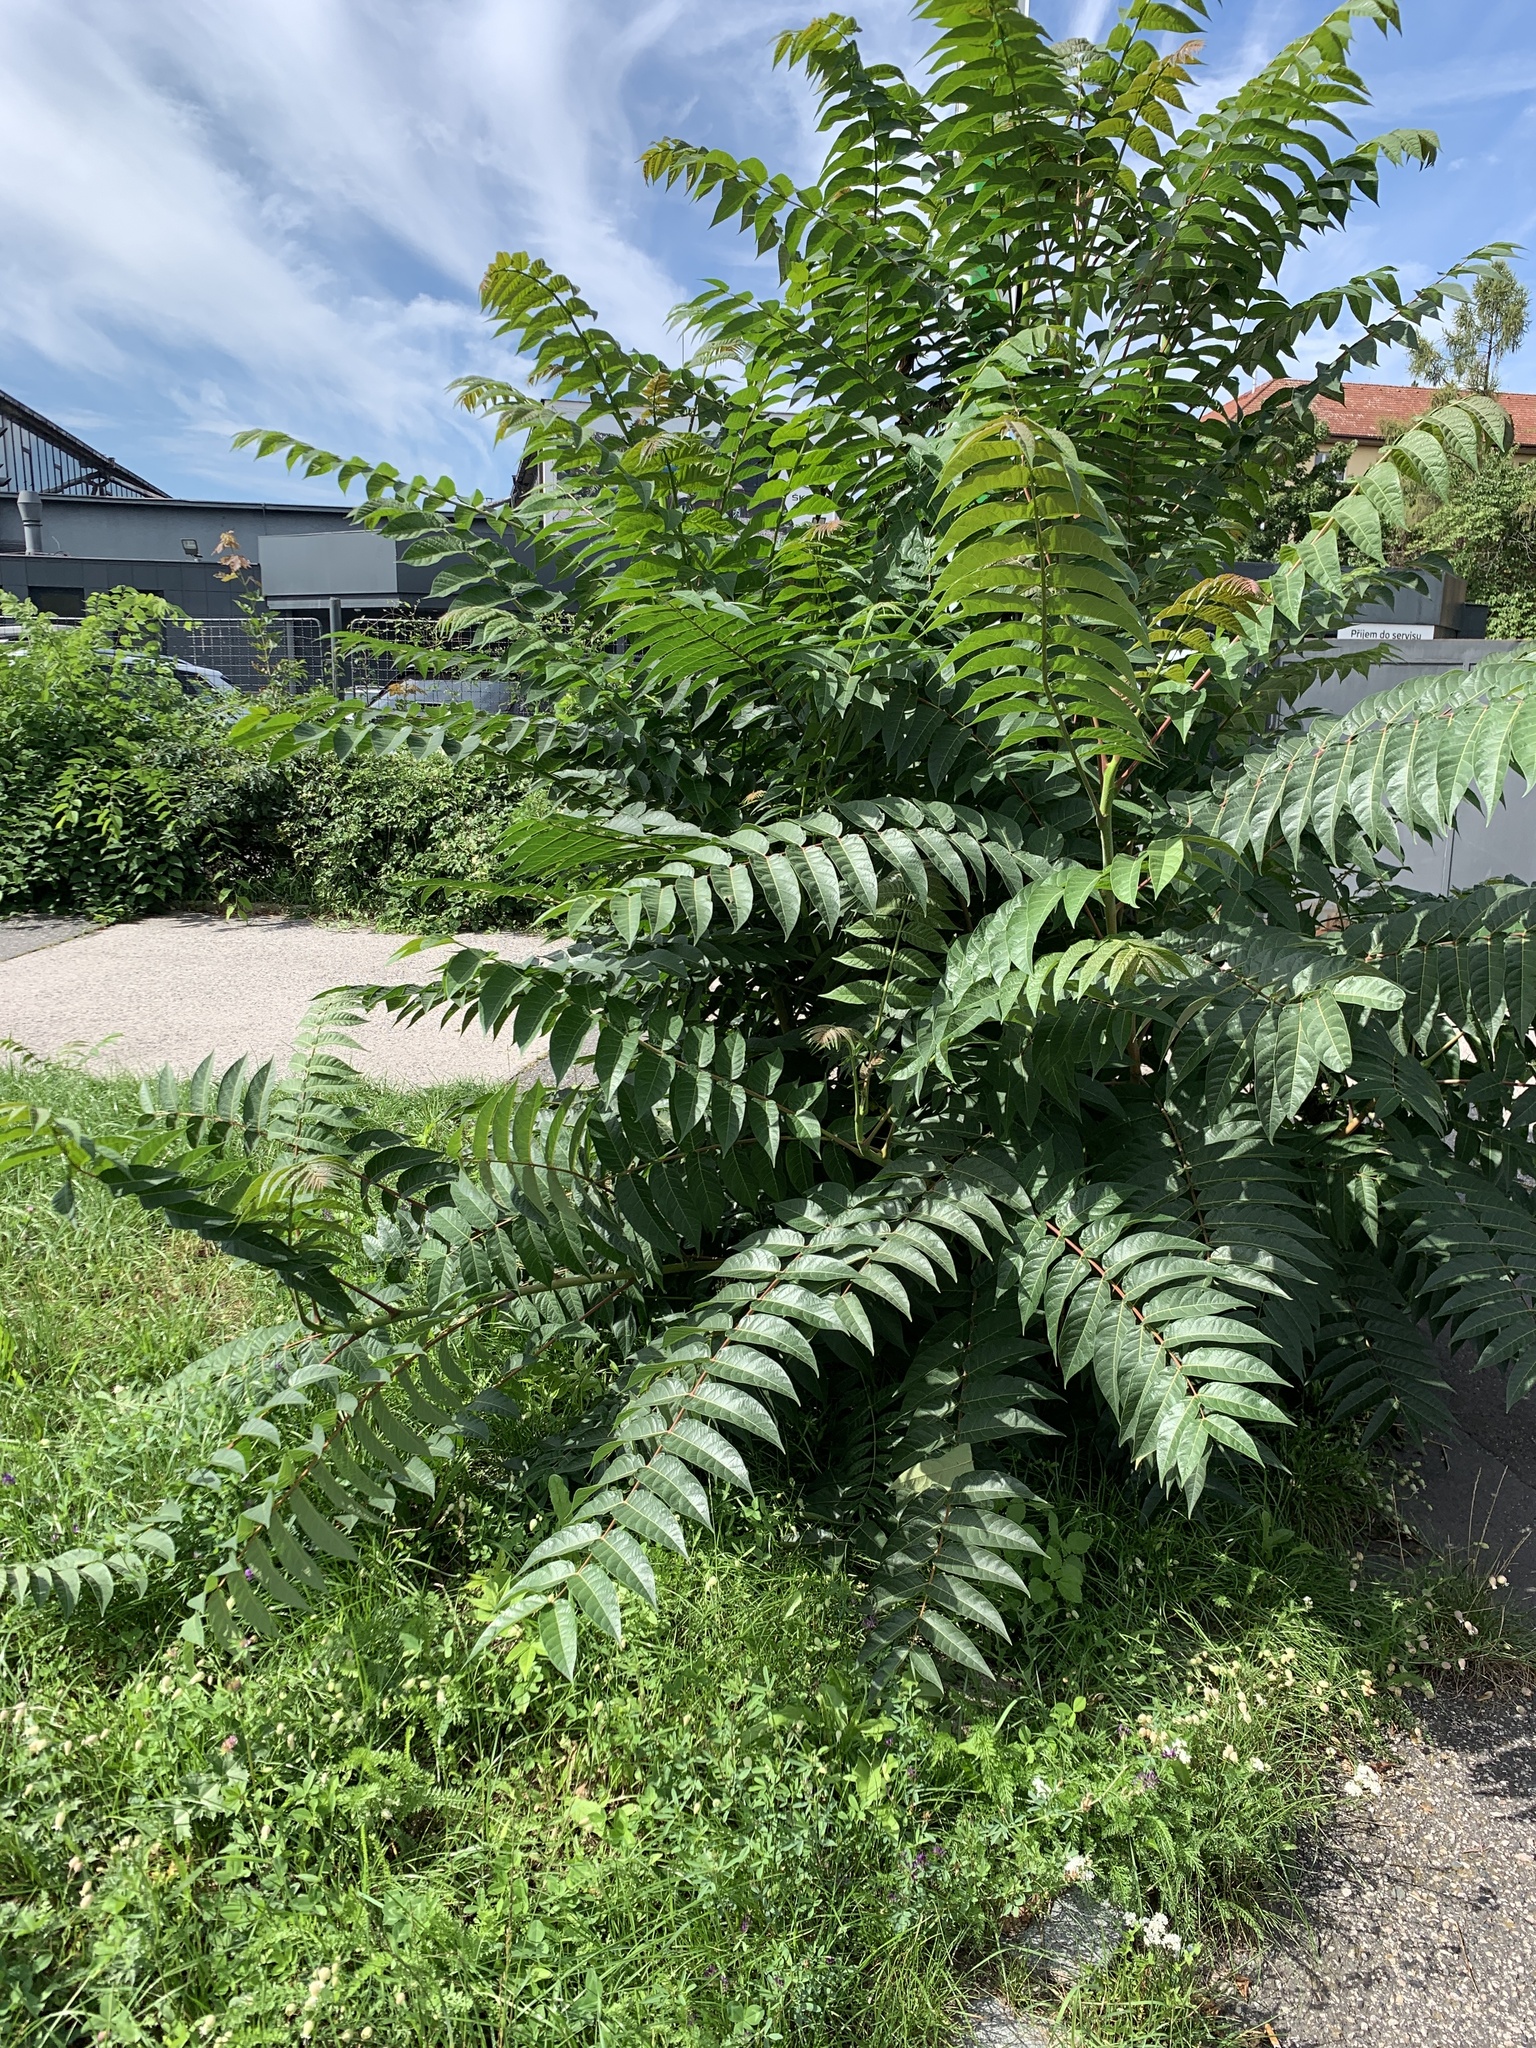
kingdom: Plantae
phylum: Tracheophyta
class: Magnoliopsida
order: Sapindales
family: Simaroubaceae
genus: Ailanthus
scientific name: Ailanthus altissima
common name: Tree-of-heaven
